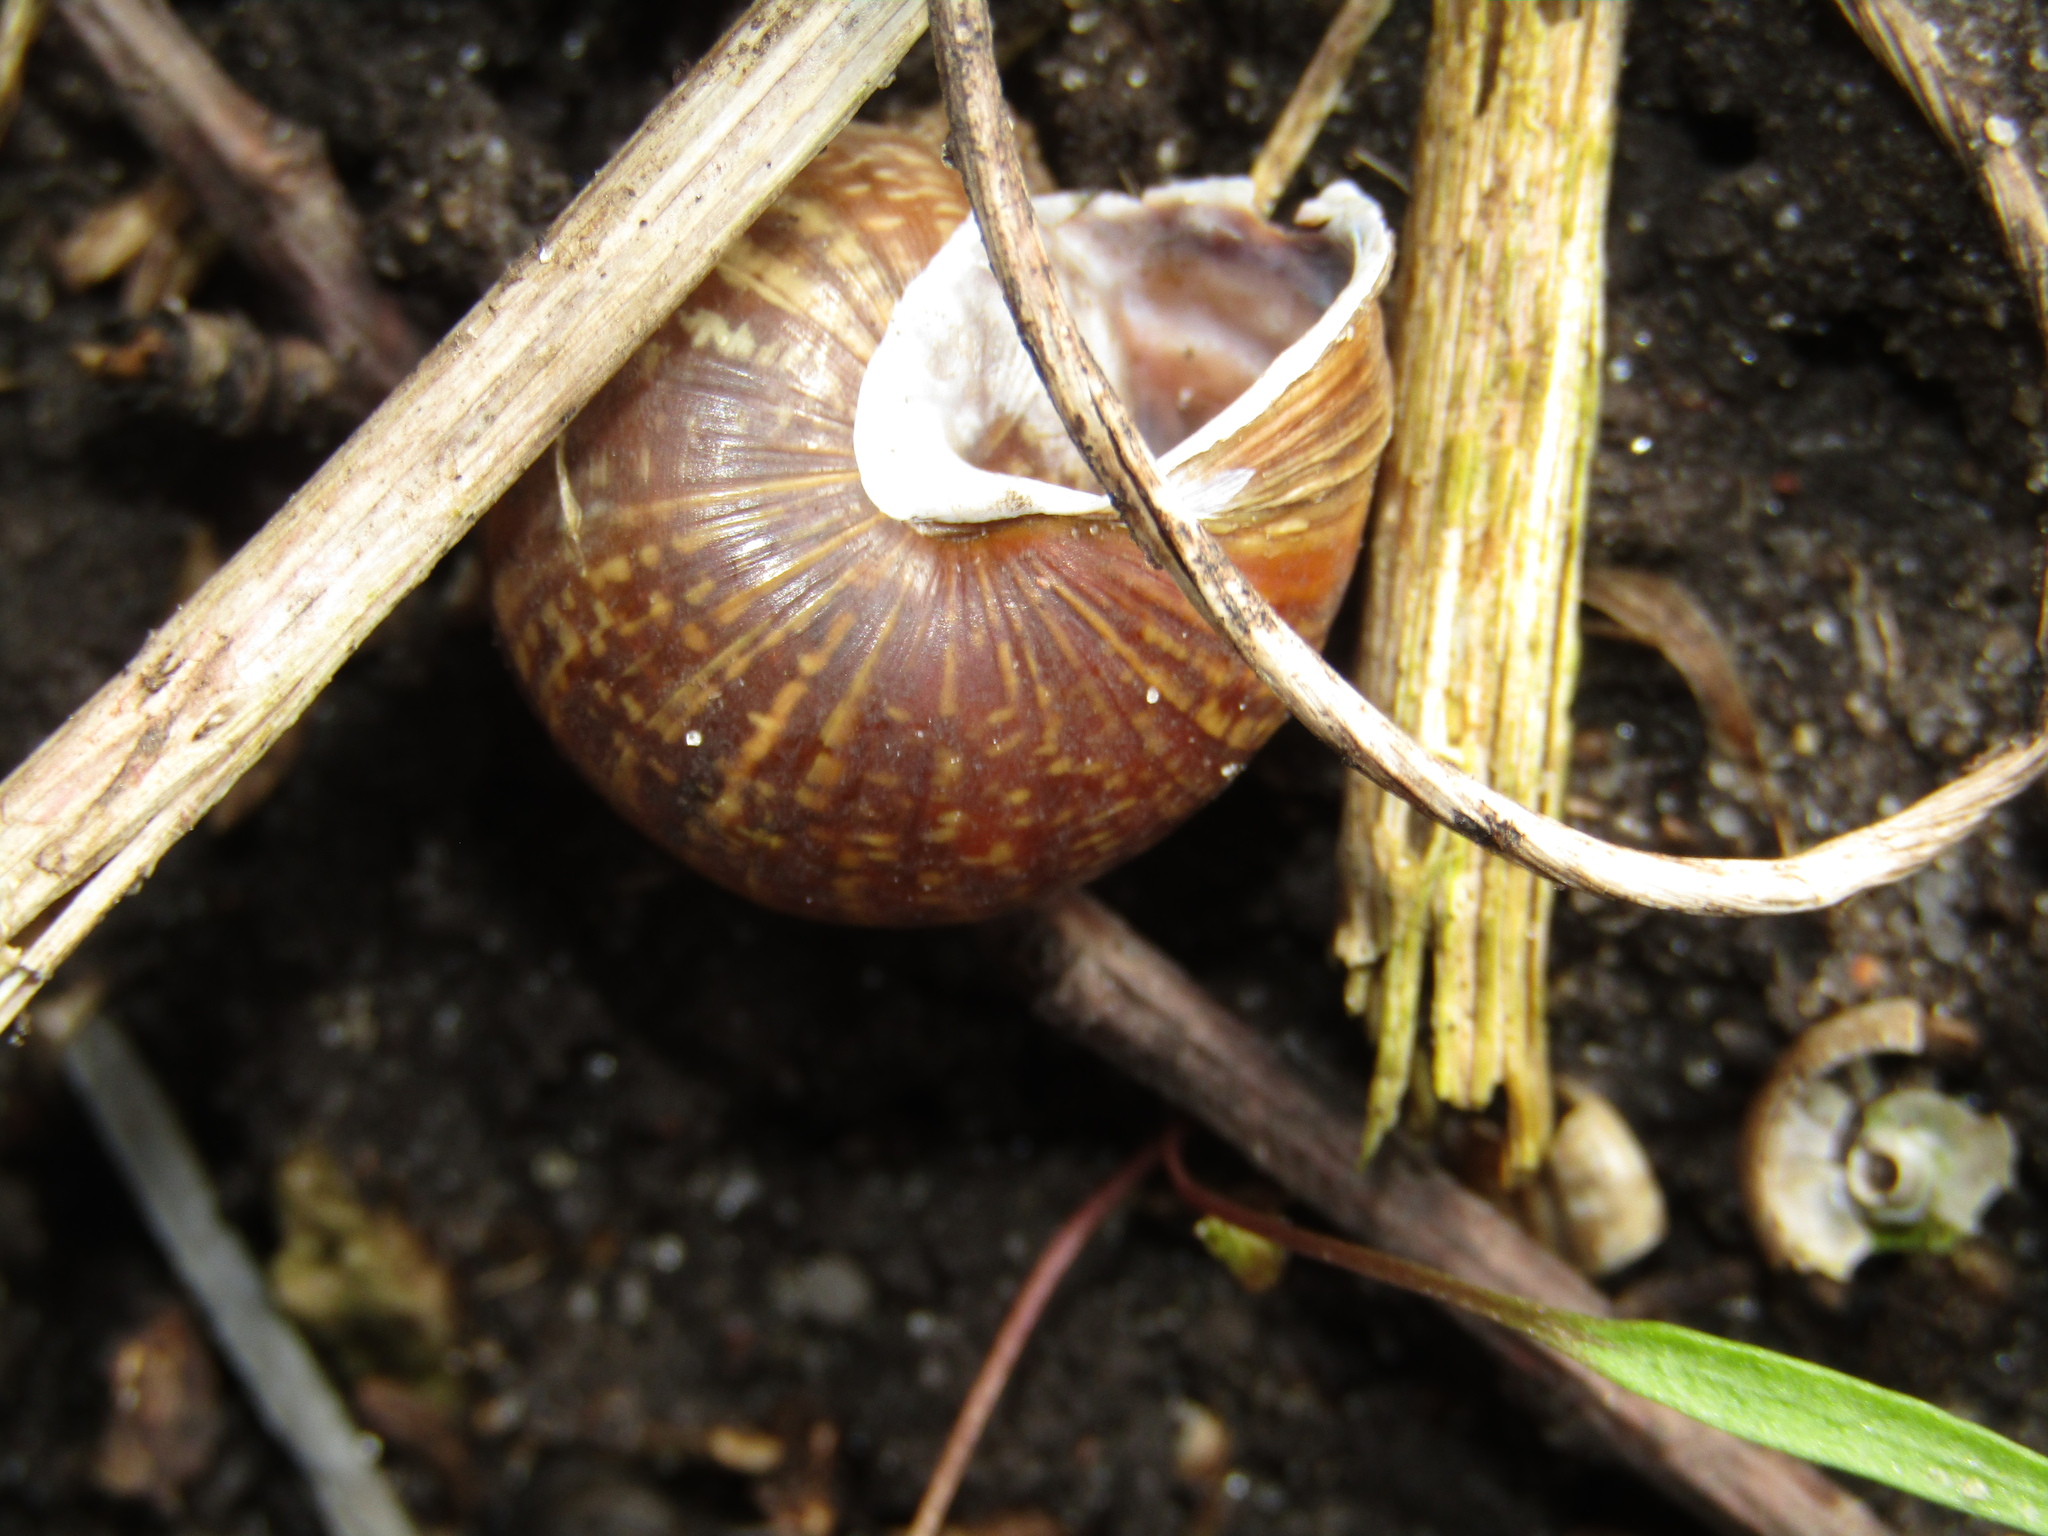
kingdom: Animalia
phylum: Mollusca
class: Gastropoda
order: Stylommatophora
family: Helicidae
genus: Arianta
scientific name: Arianta arbustorum
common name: Copse snail
